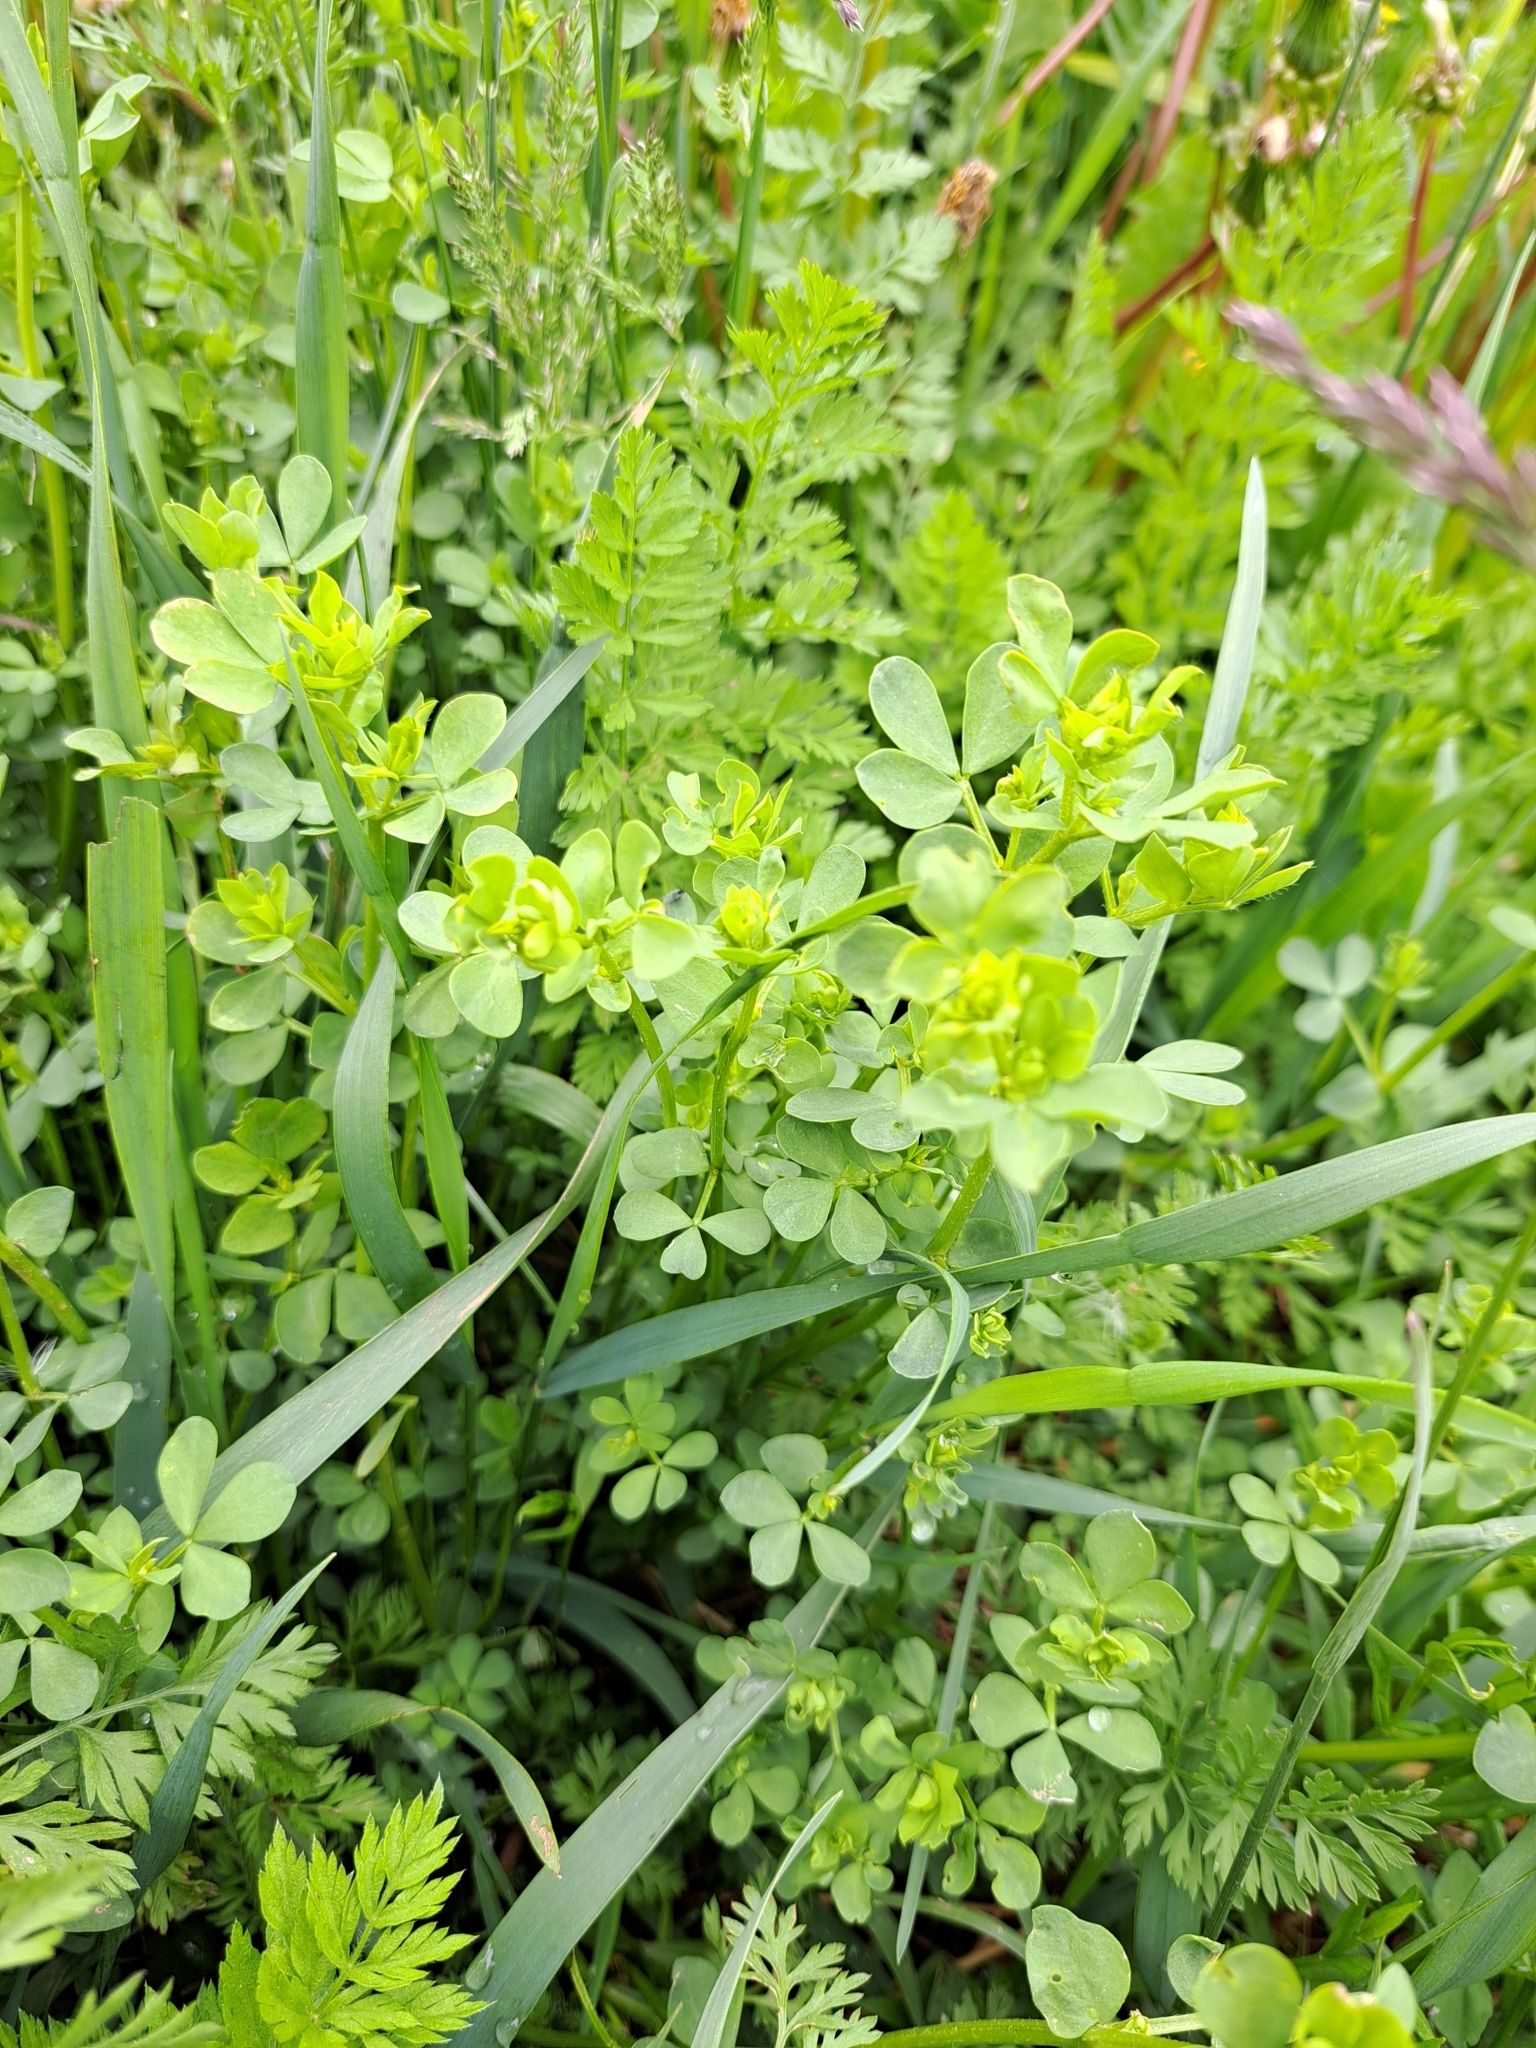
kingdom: Plantae
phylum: Tracheophyta
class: Magnoliopsida
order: Fabales
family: Fabaceae
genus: Lotus
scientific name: Lotus corniculatus
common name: Common bird's-foot-trefoil
